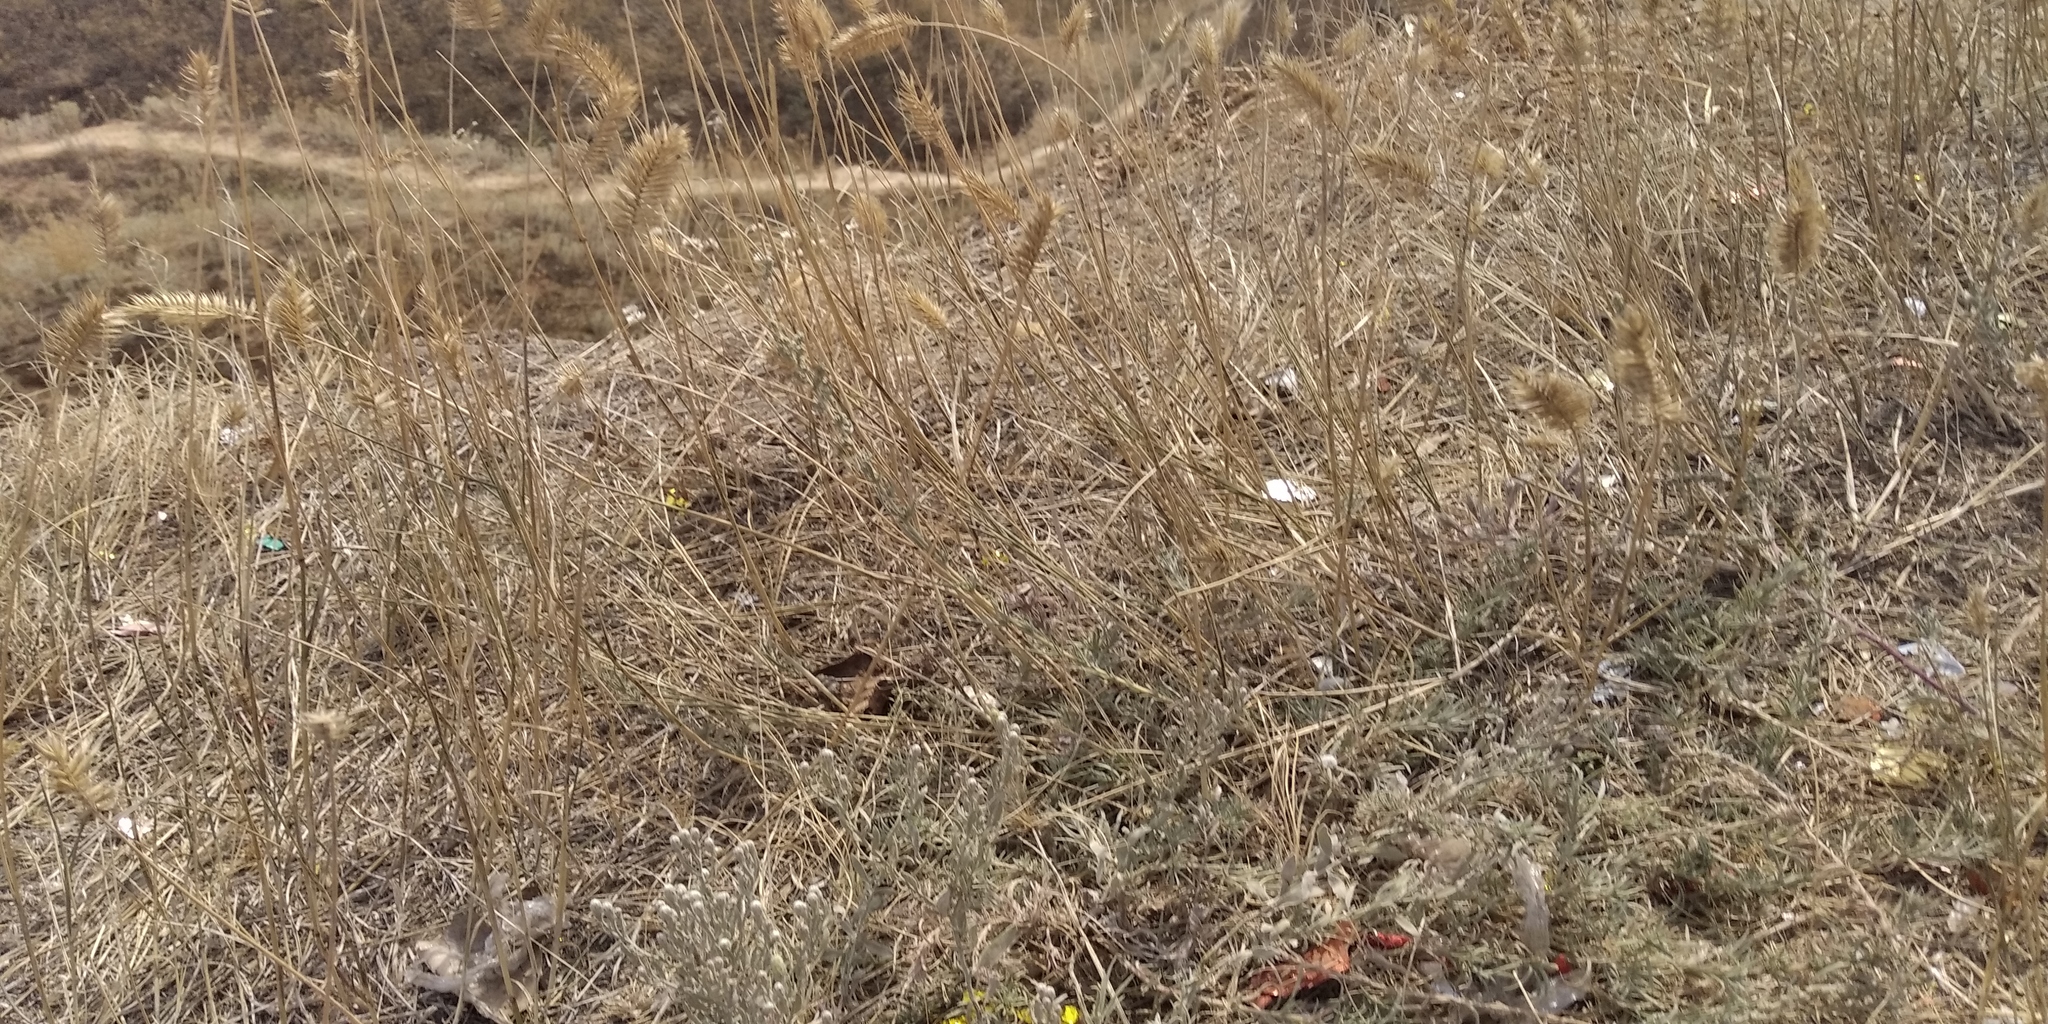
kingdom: Plantae
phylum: Tracheophyta
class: Liliopsida
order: Poales
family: Poaceae
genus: Agropyron
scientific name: Agropyron cristatum
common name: Crested wheatgrass
